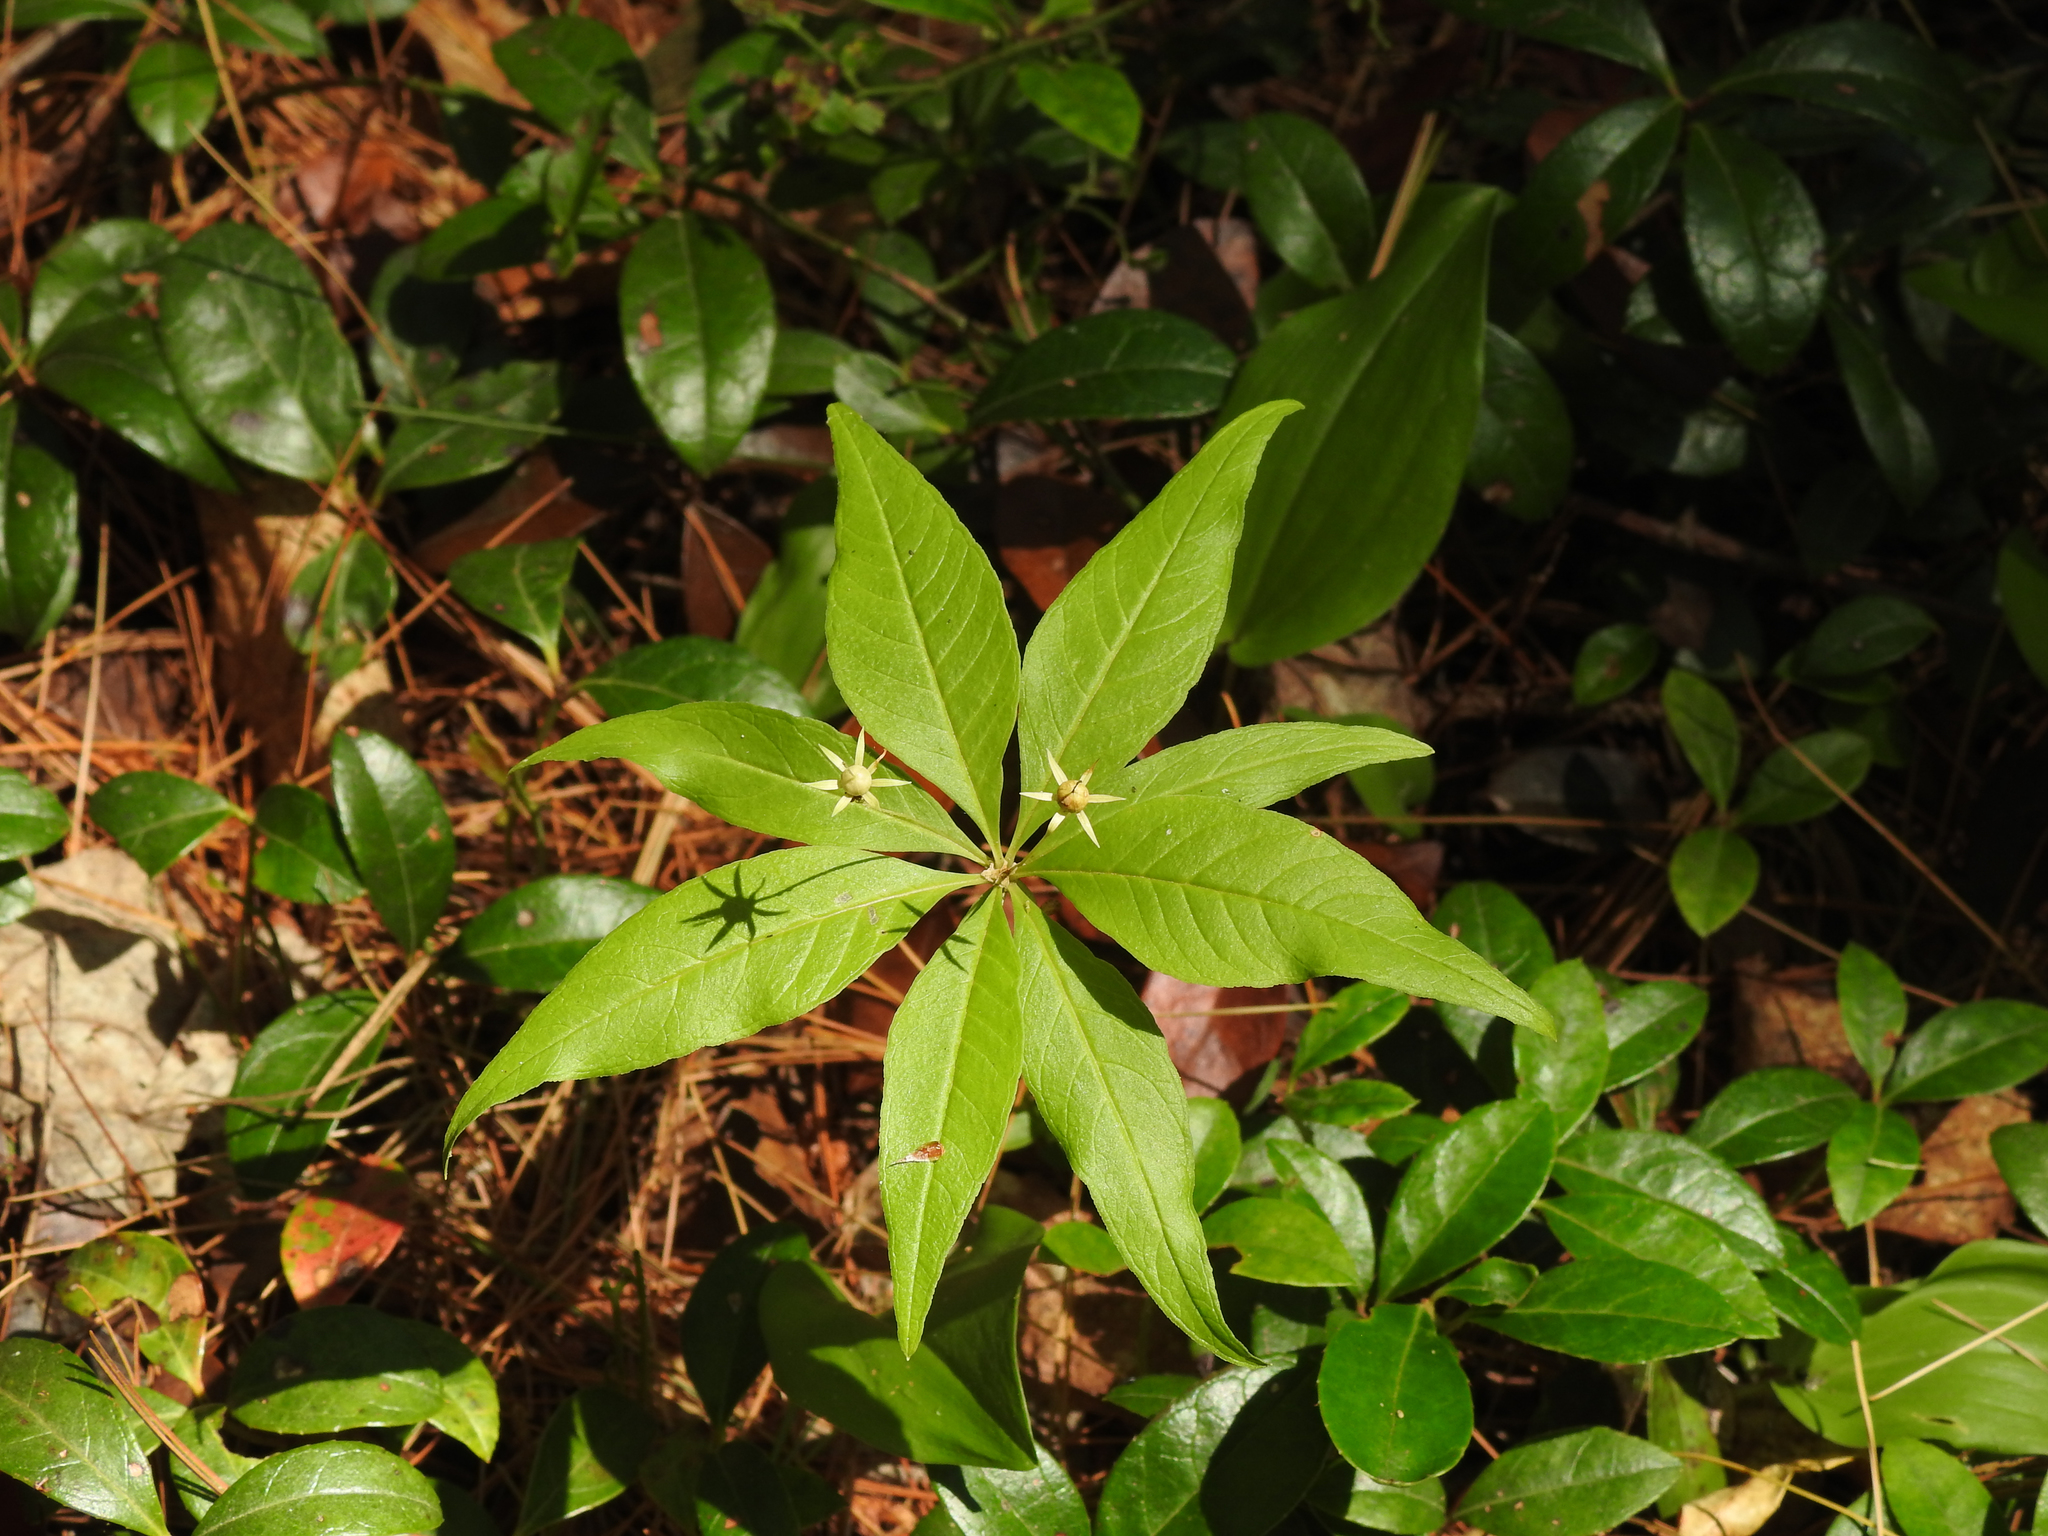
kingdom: Plantae
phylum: Tracheophyta
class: Magnoliopsida
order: Ericales
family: Primulaceae
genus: Lysimachia
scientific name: Lysimachia borealis
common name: American starflower
